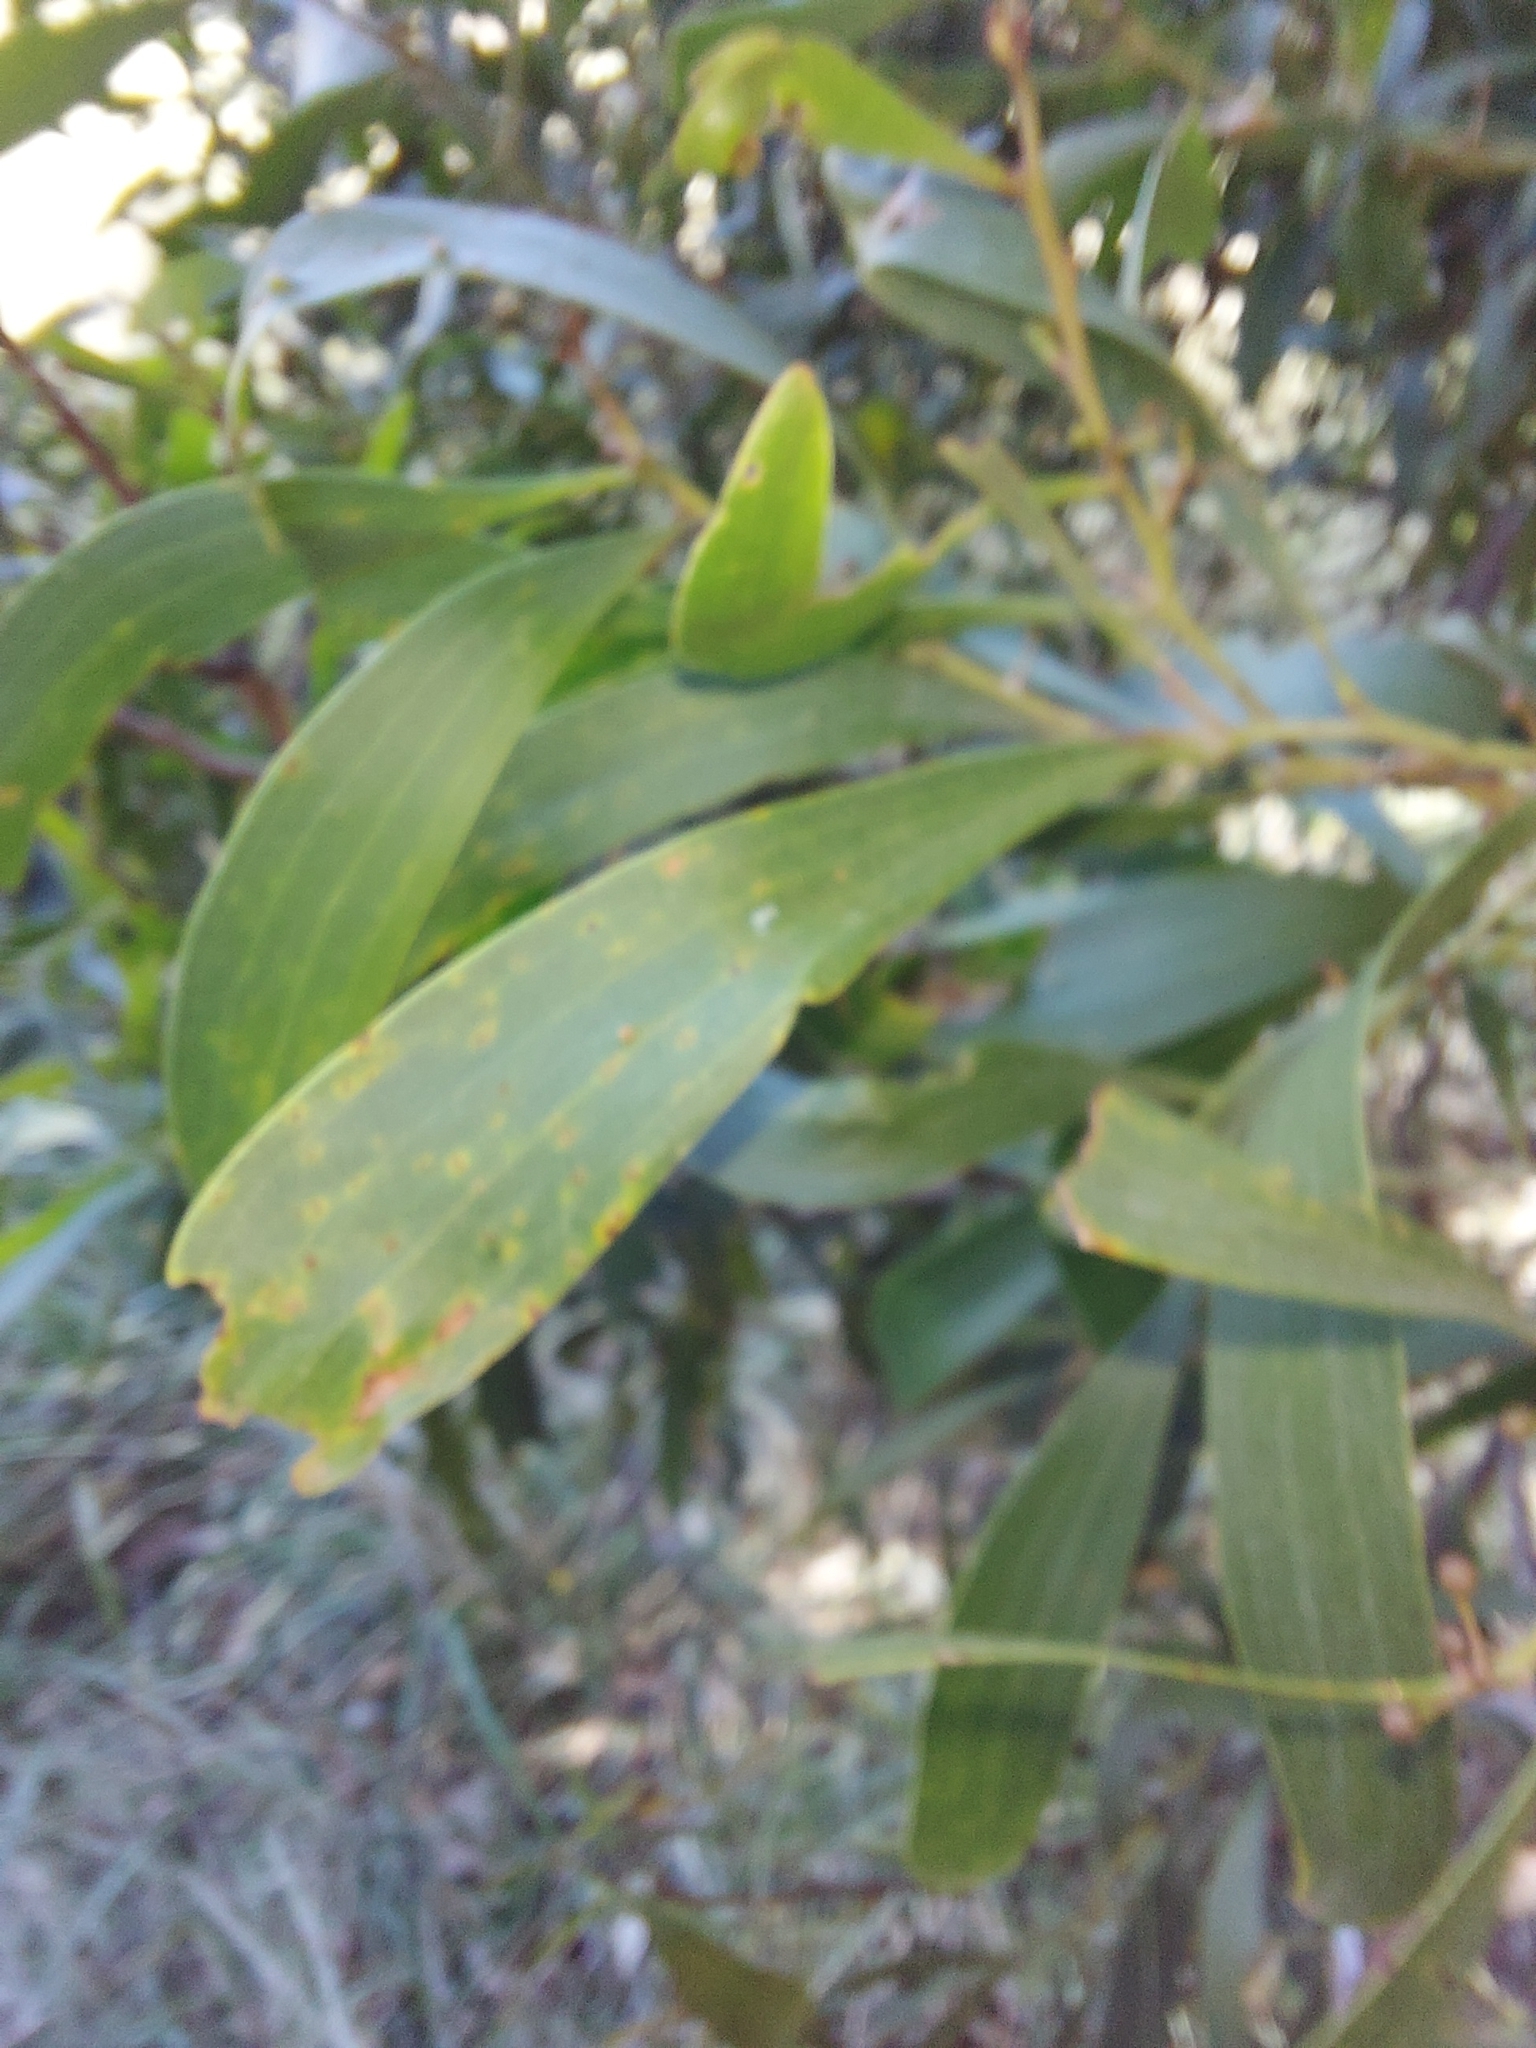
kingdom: Plantae
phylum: Tracheophyta
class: Magnoliopsida
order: Fabales
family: Fabaceae
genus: Acacia
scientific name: Acacia melanoxylon
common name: Blackwood
